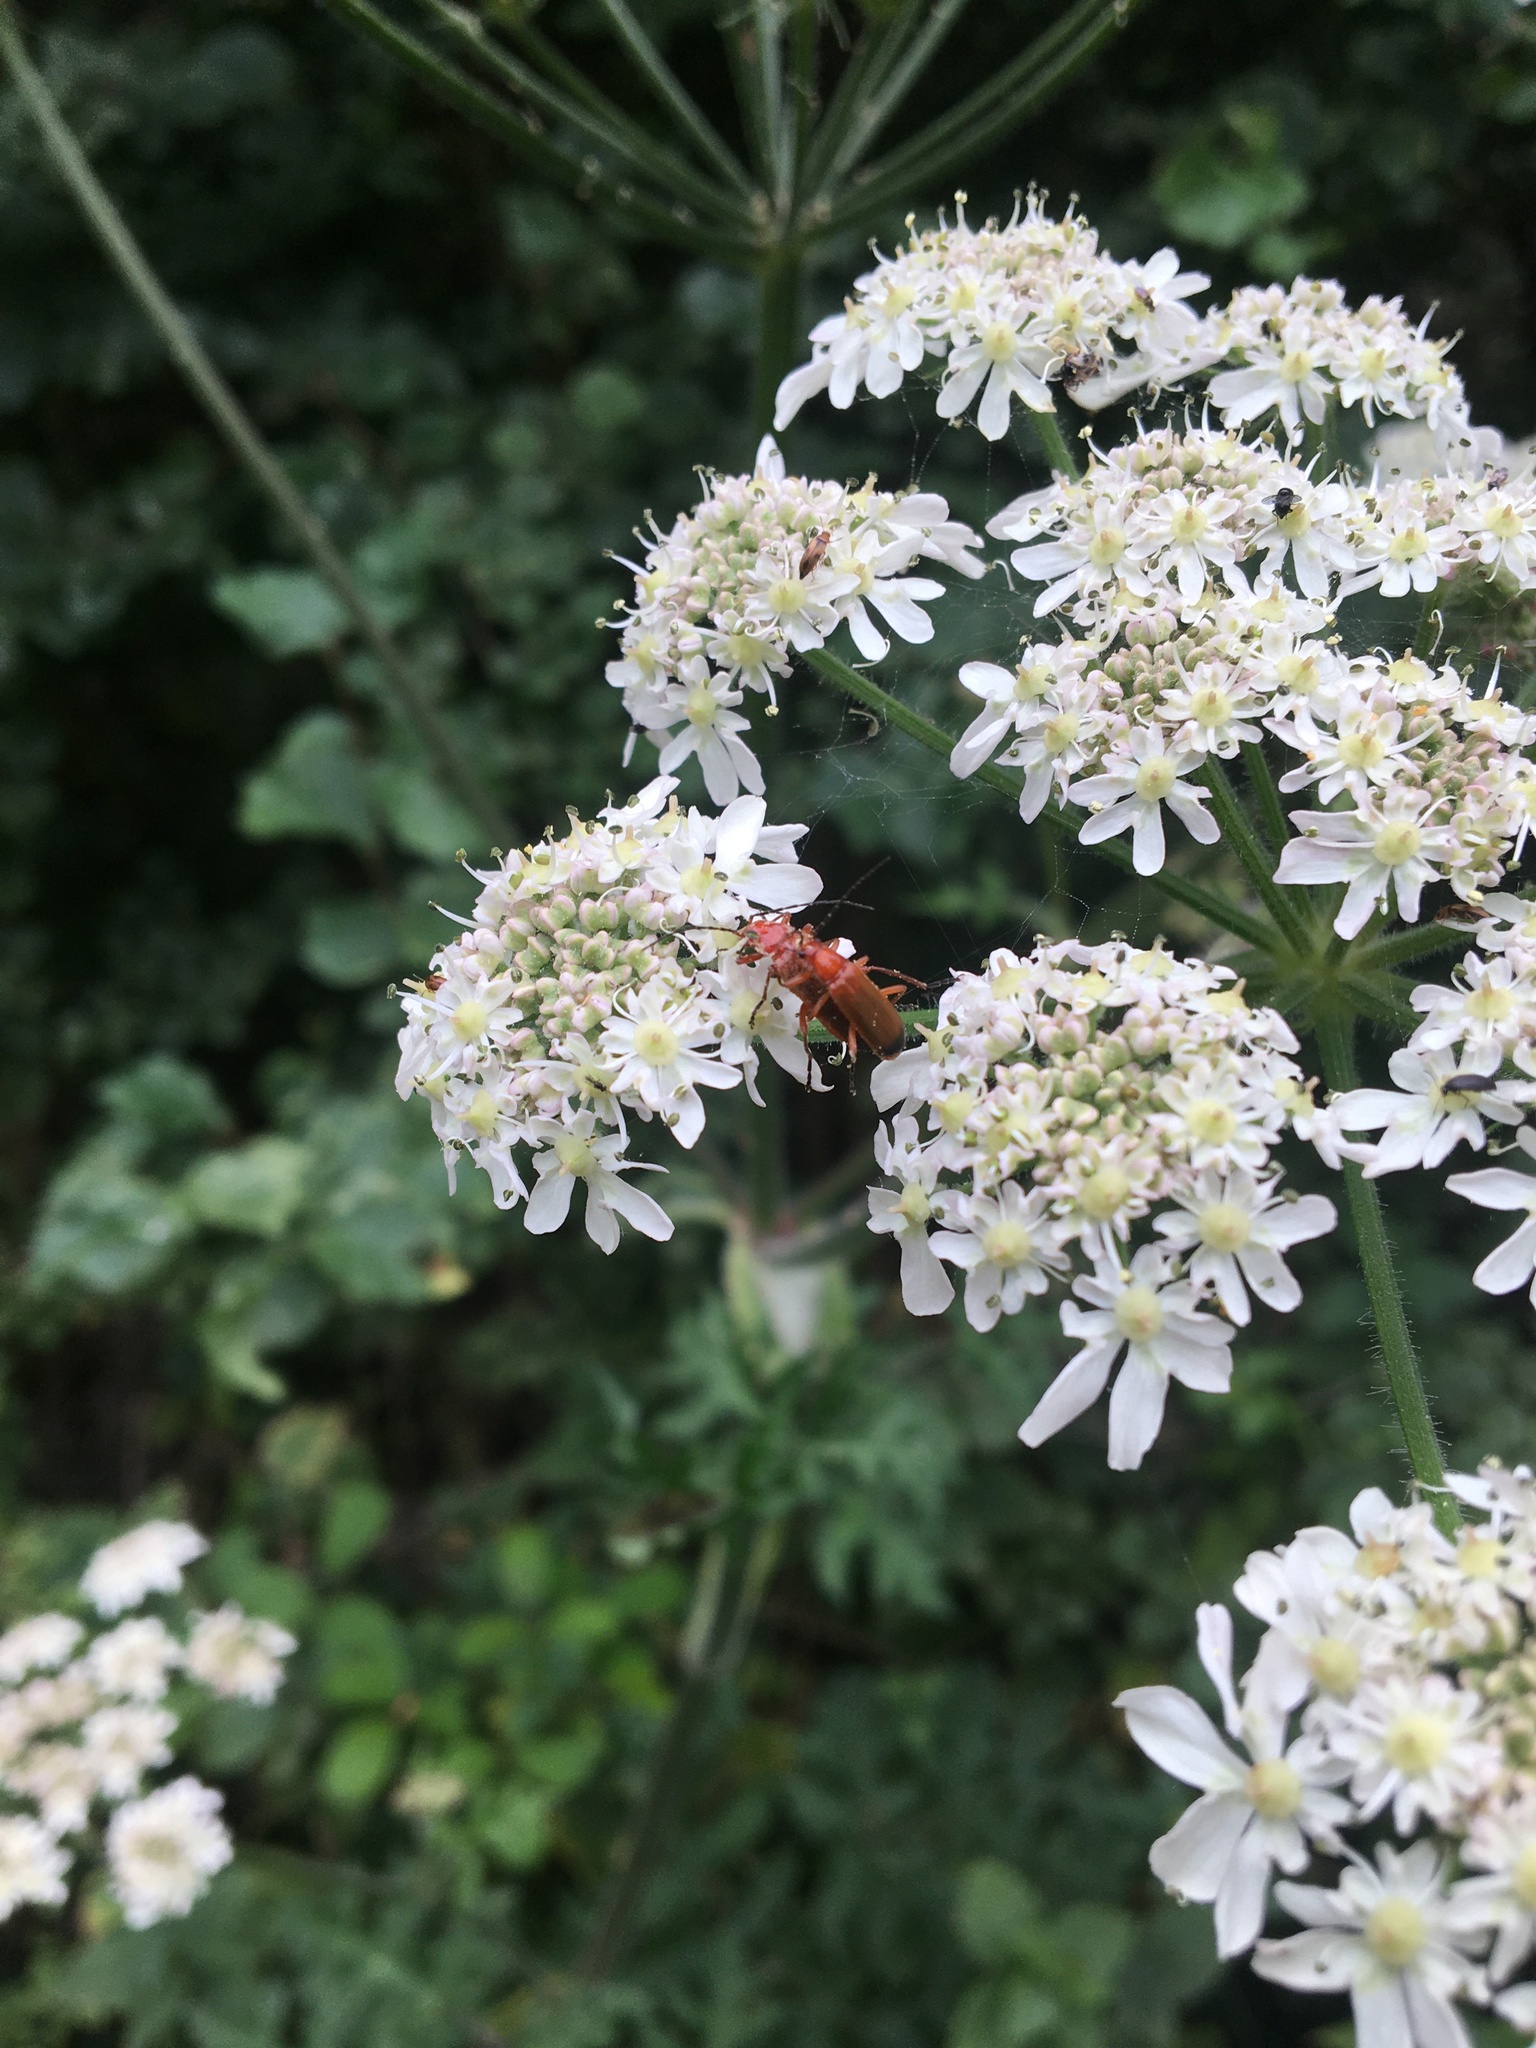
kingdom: Animalia
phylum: Arthropoda
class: Insecta
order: Coleoptera
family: Cantharidae
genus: Rhagonycha
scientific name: Rhagonycha fulva
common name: Common red soldier beetle
